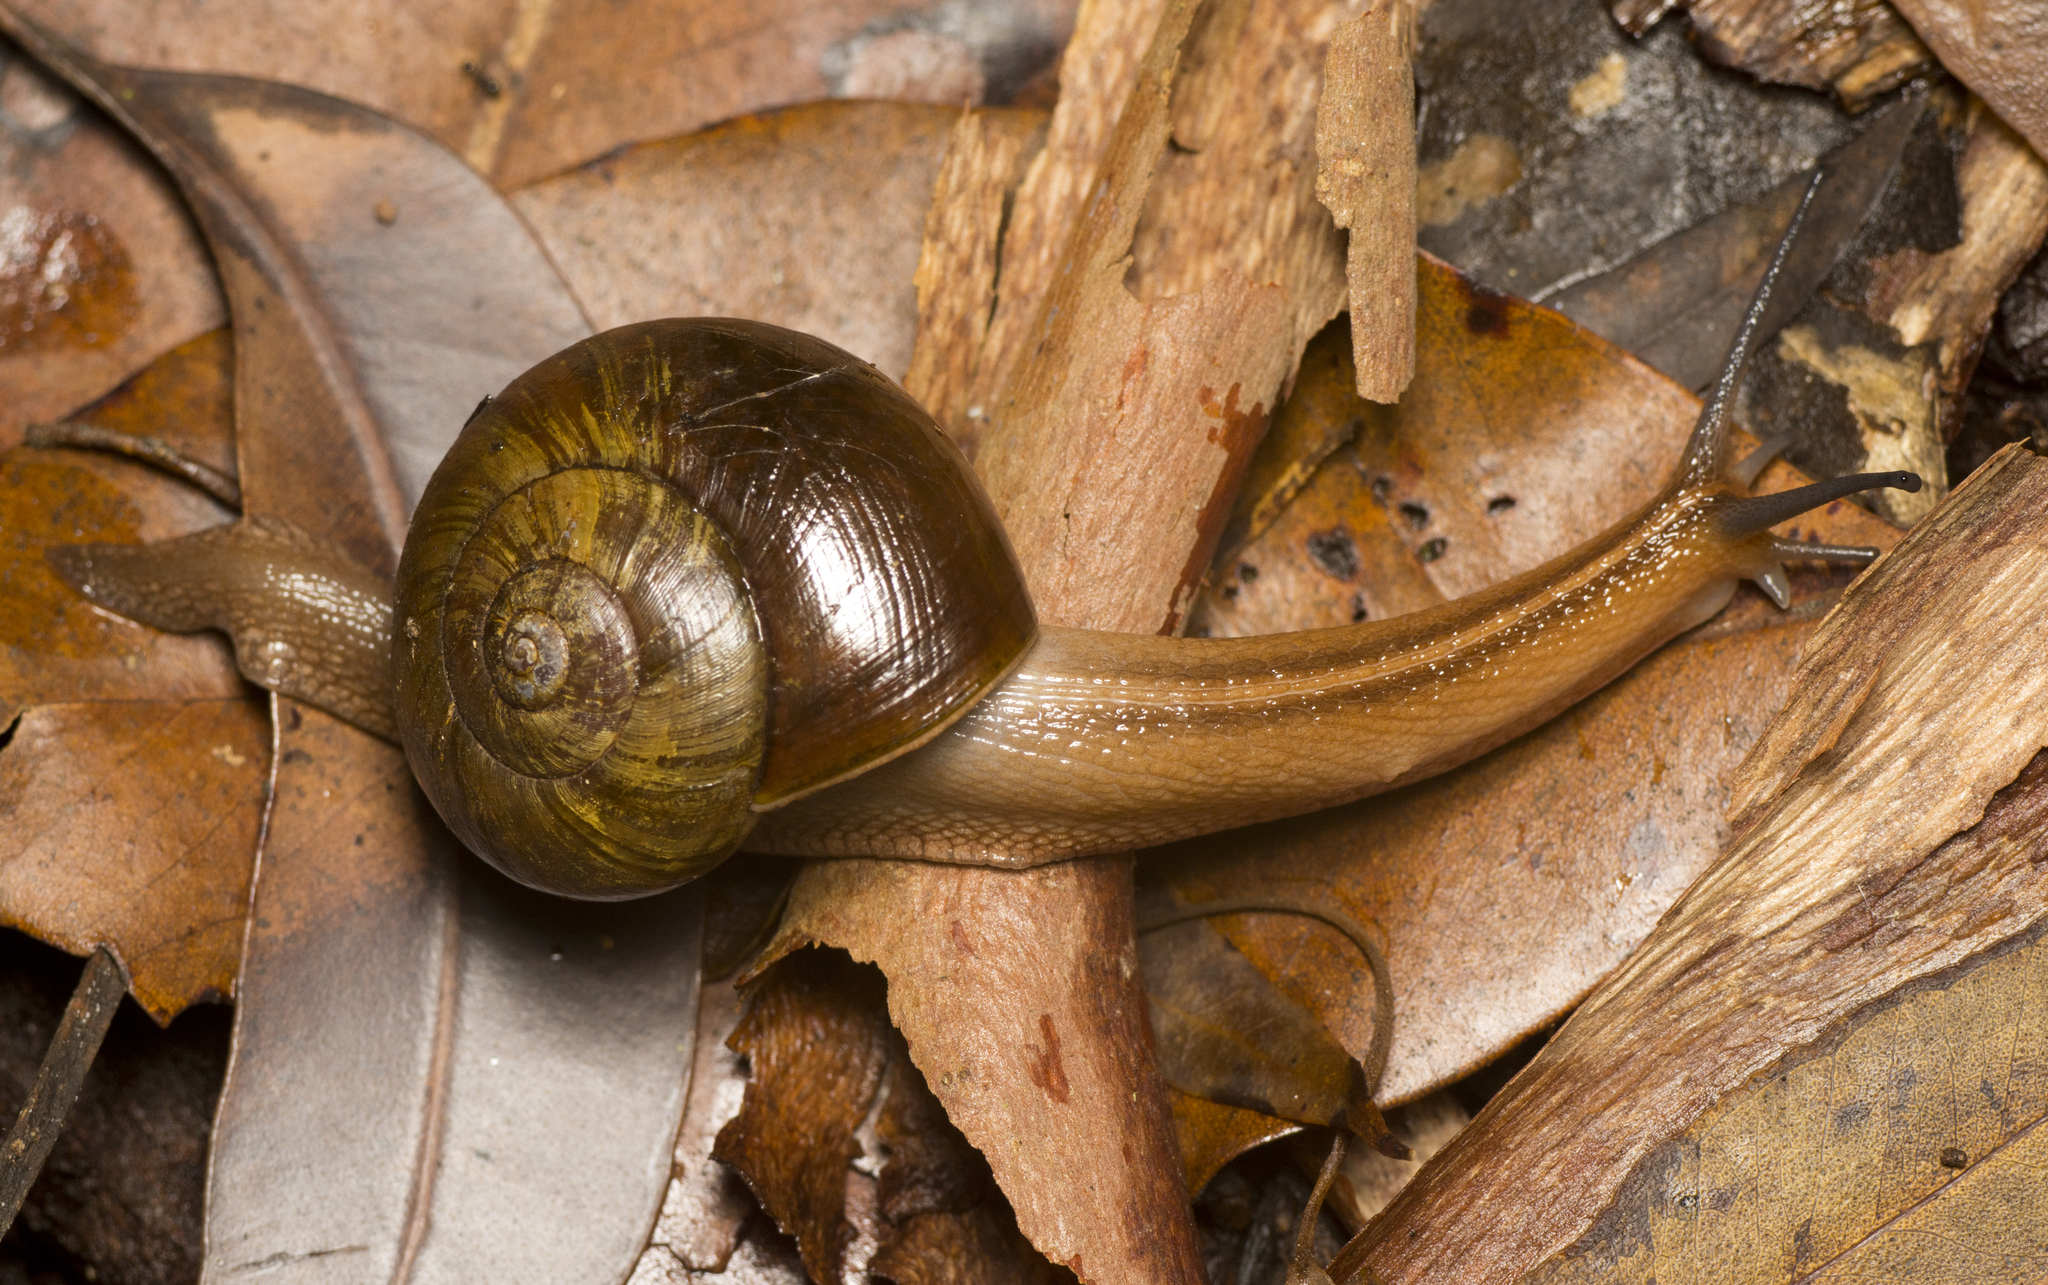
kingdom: Animalia
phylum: Mollusca
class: Gastropoda
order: Stylommatophora
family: Rhytididae
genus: Terrycarlessia
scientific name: Terrycarlessia turbinata
